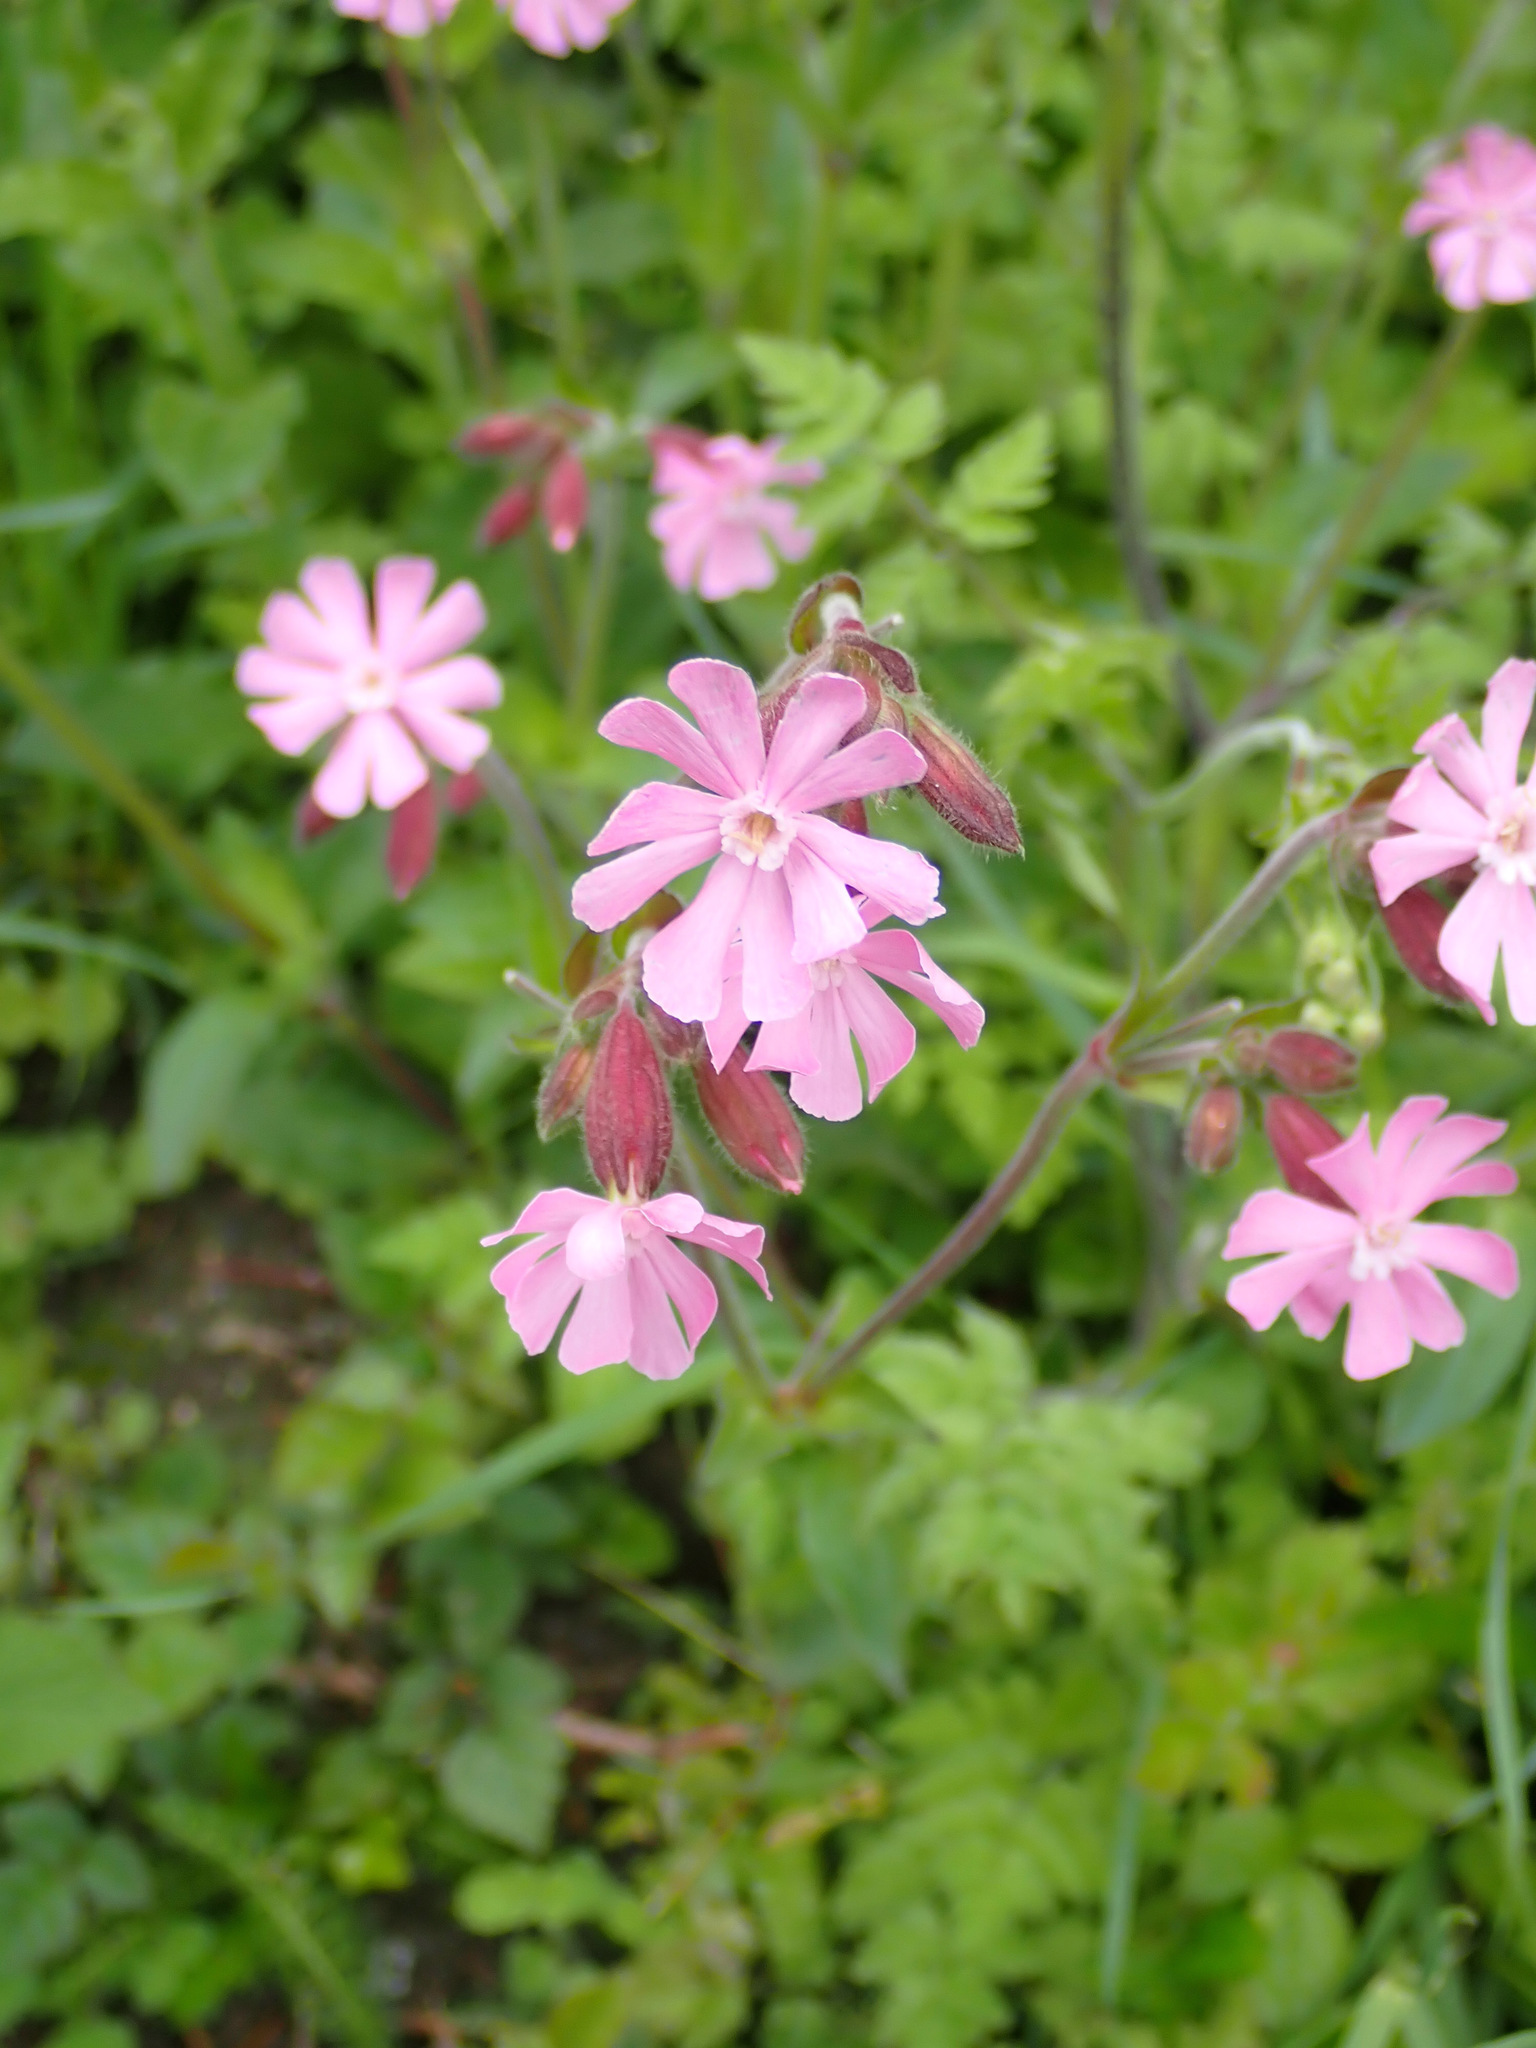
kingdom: Plantae
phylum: Tracheophyta
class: Magnoliopsida
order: Caryophyllales
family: Caryophyllaceae
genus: Silene
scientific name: Silene dioica
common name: Red campion
